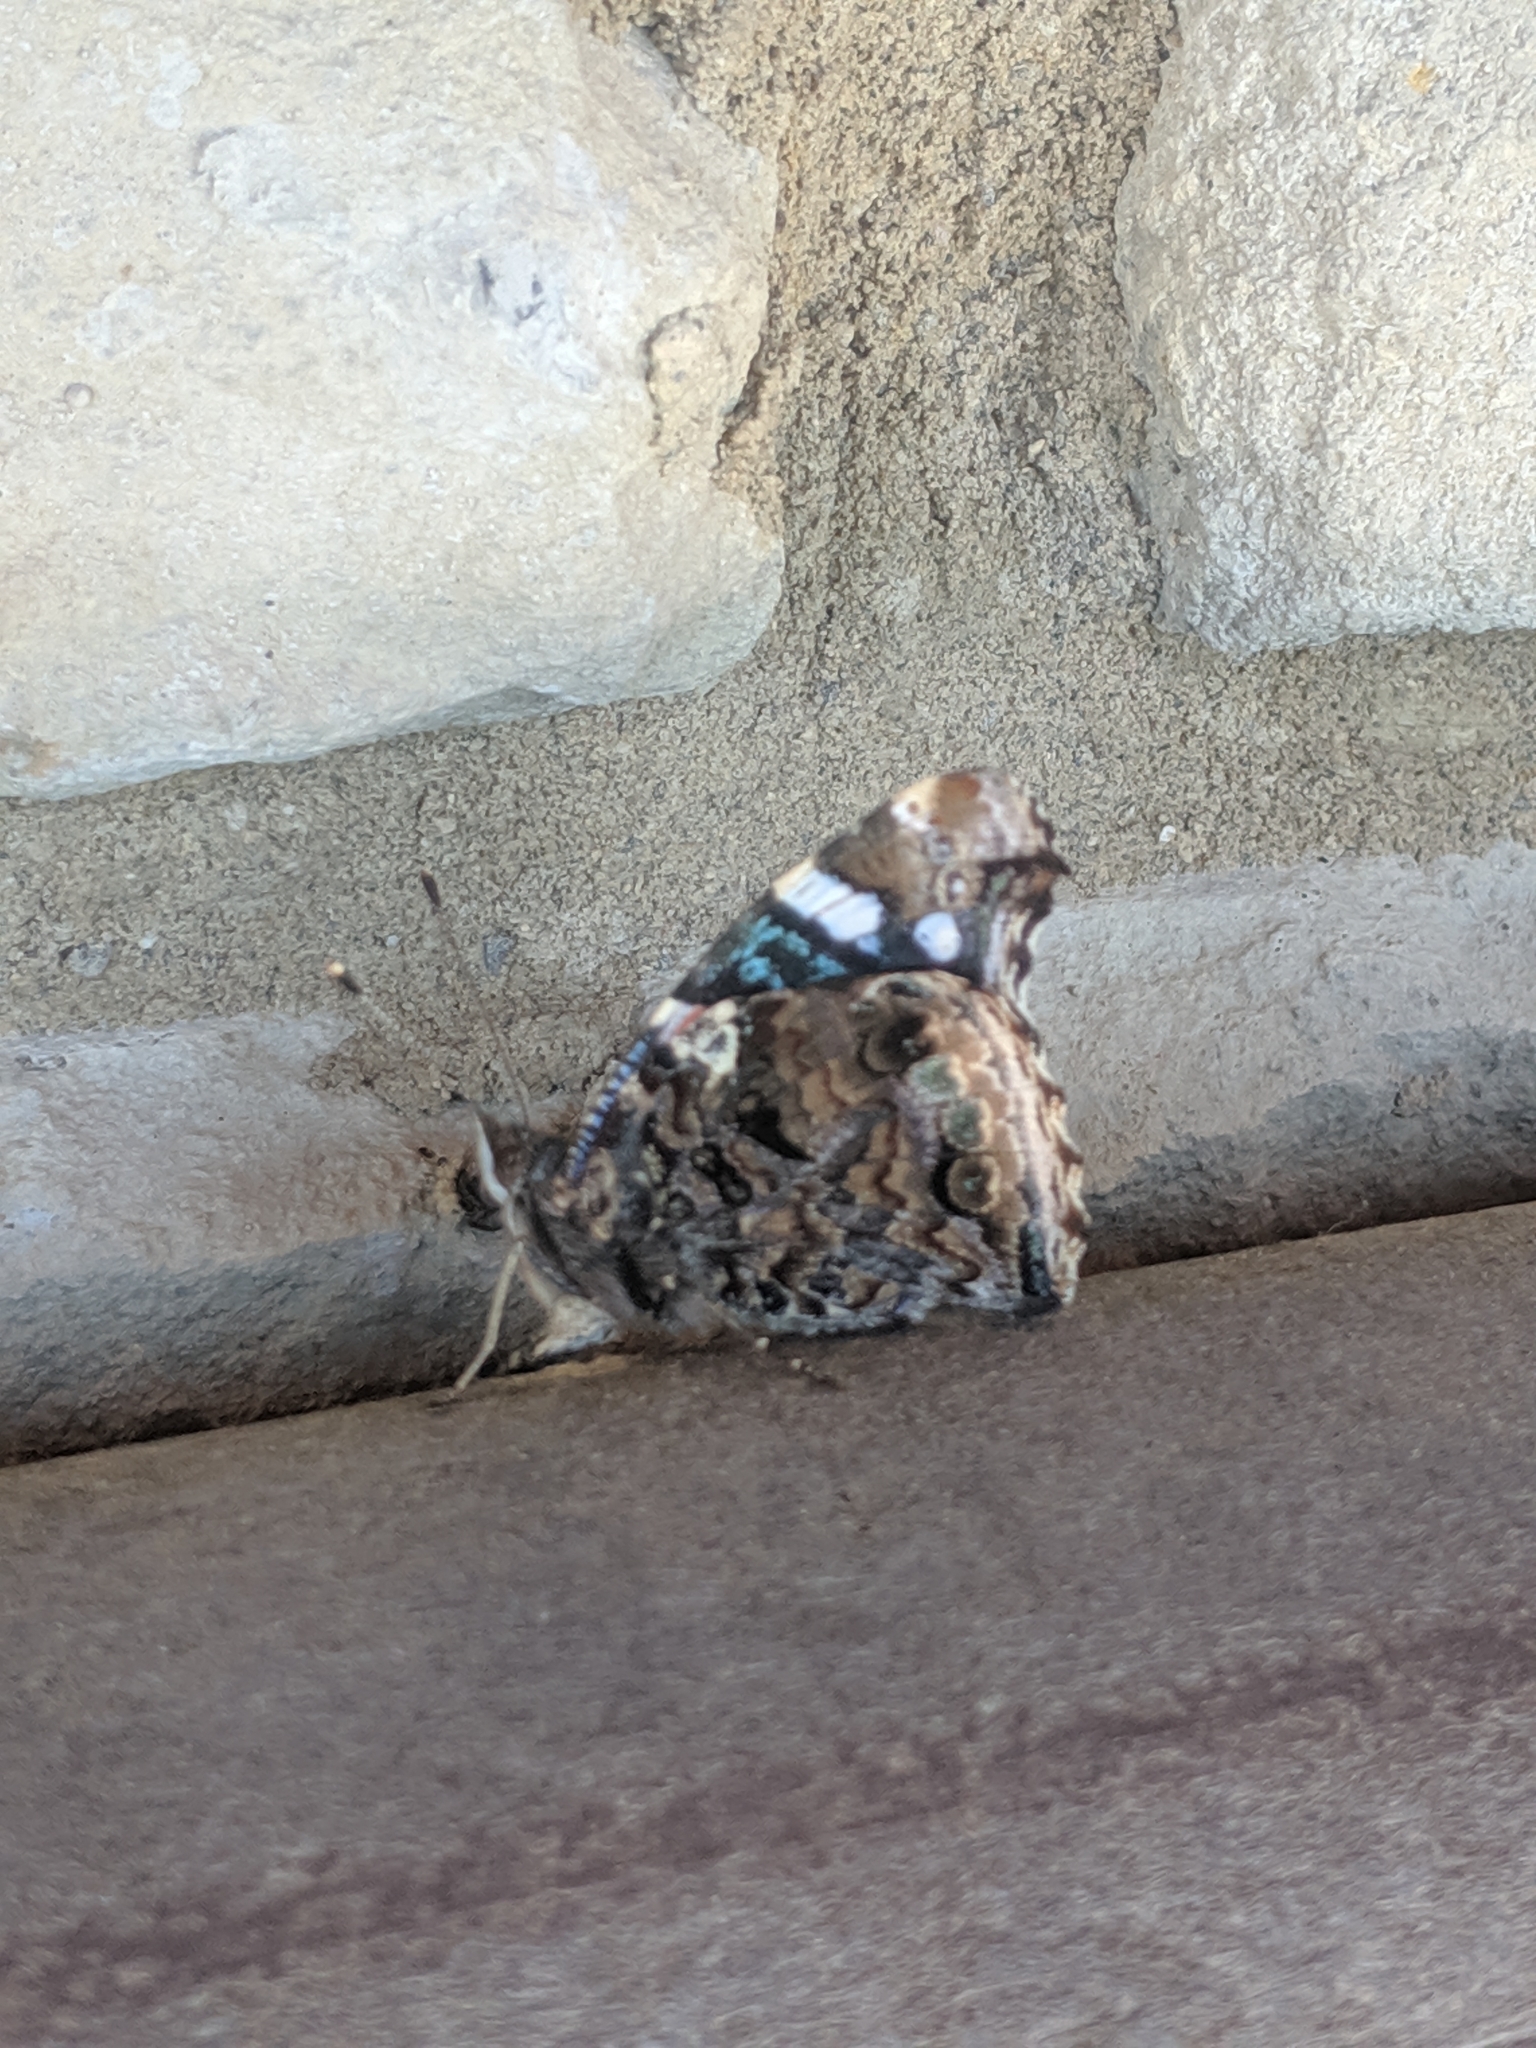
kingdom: Animalia
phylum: Arthropoda
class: Insecta
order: Lepidoptera
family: Nymphalidae
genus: Vanessa
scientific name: Vanessa atalanta
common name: Red admiral
